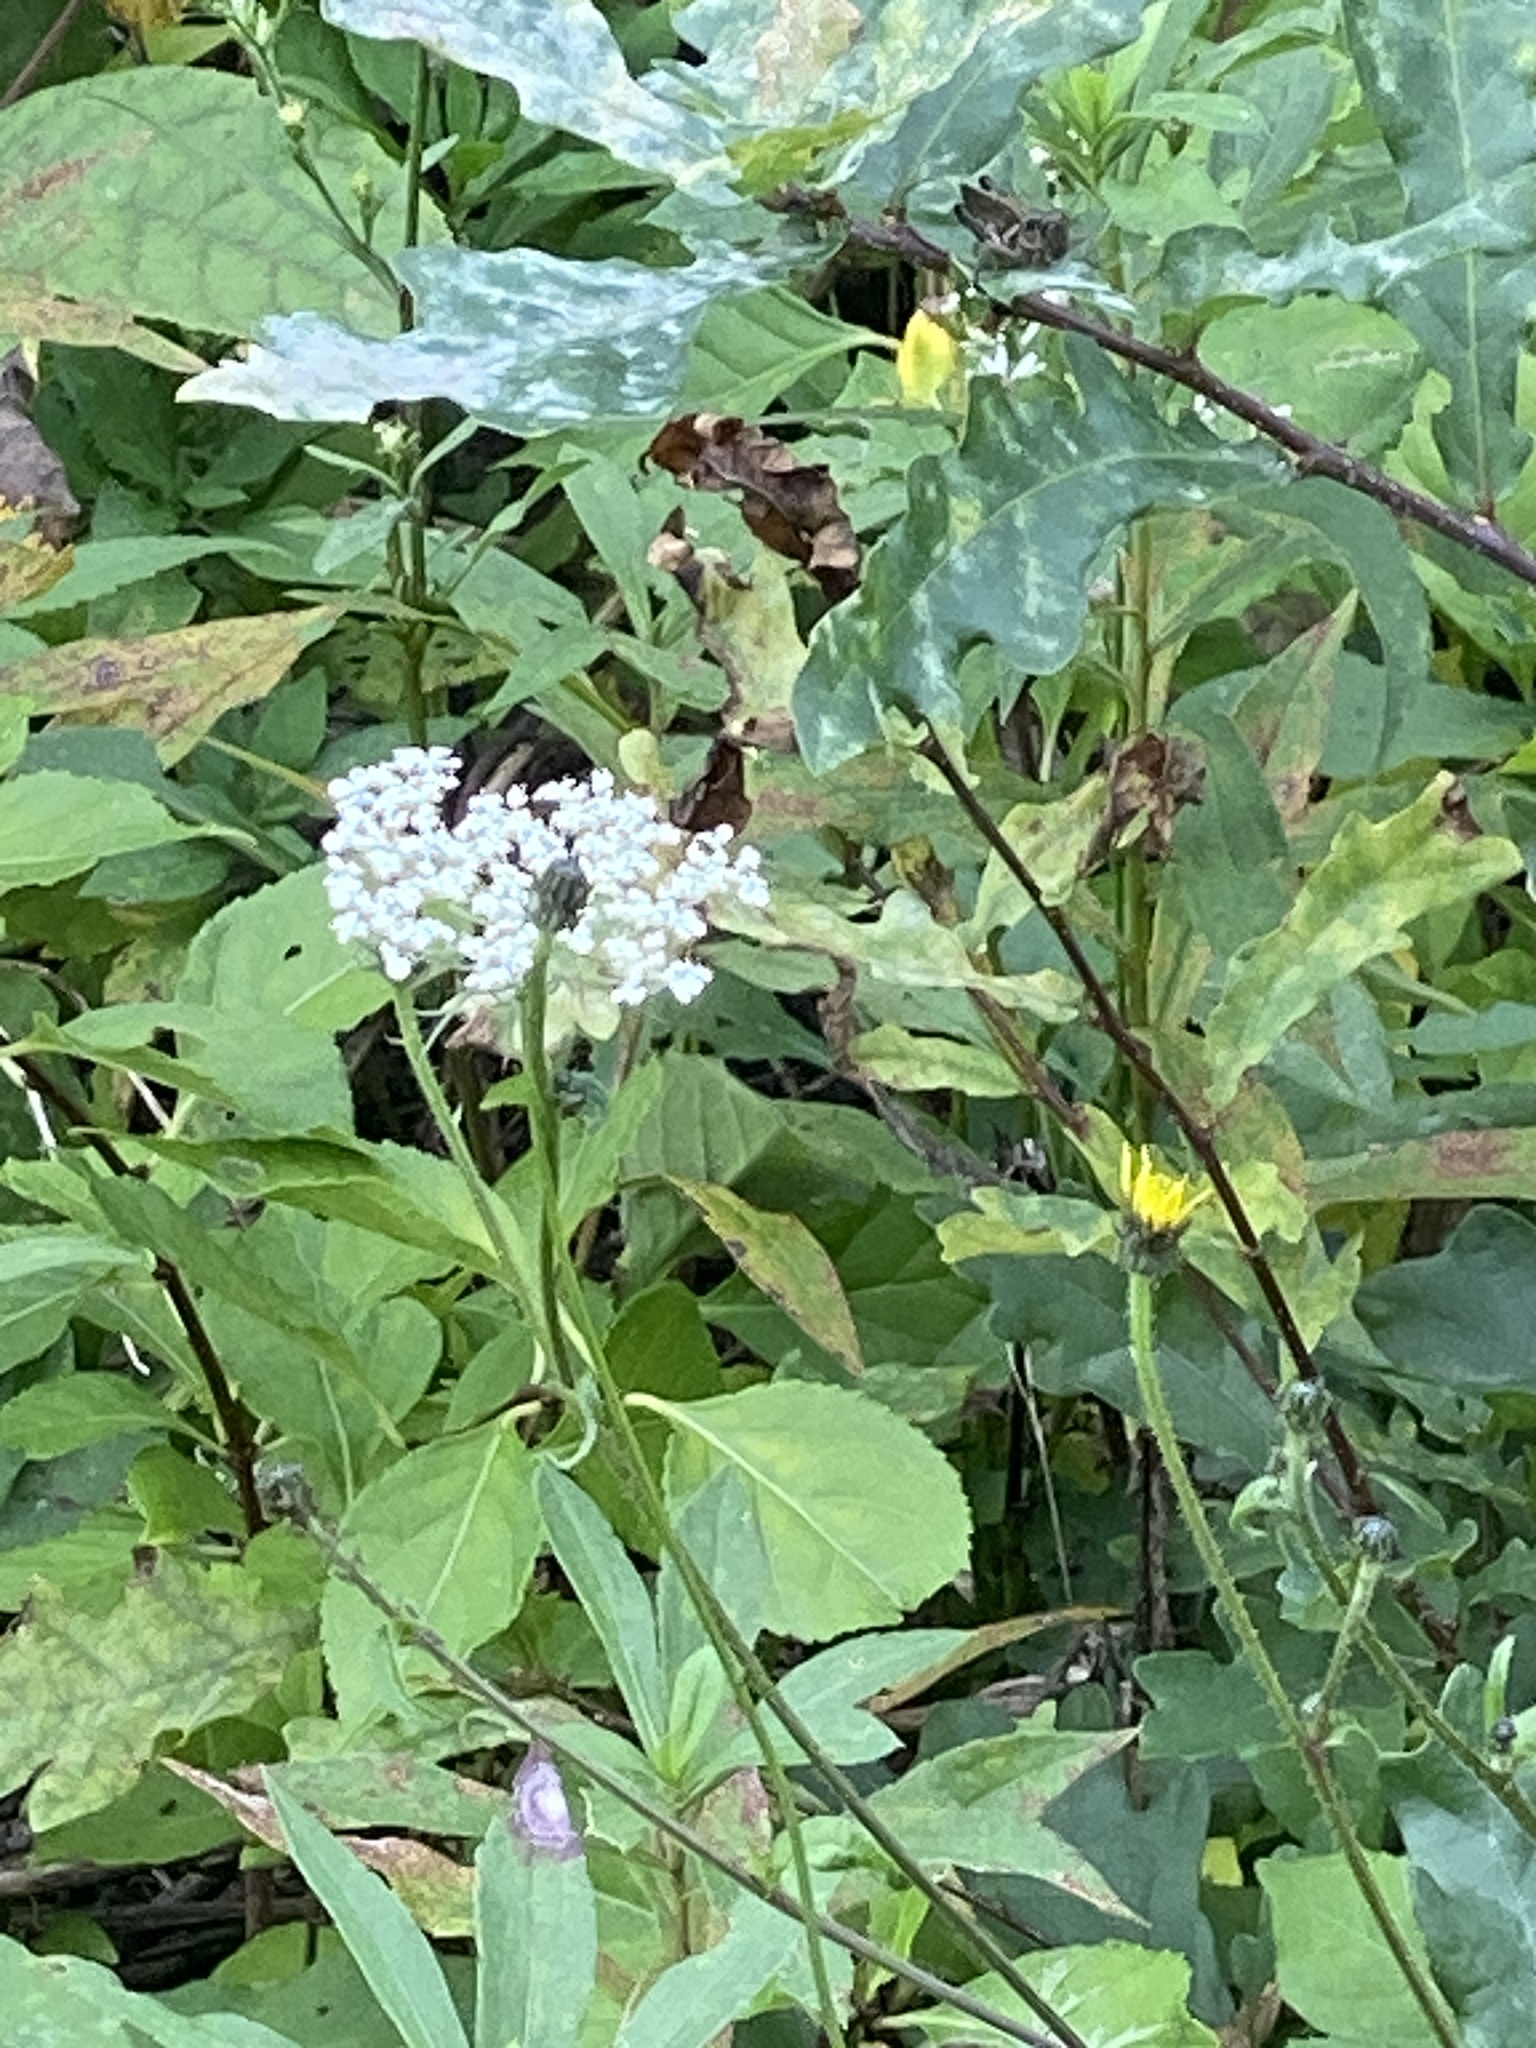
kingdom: Plantae
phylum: Tracheophyta
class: Magnoliopsida
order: Apiales
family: Apiaceae
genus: Daucus
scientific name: Daucus carota
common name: Wild carrot
